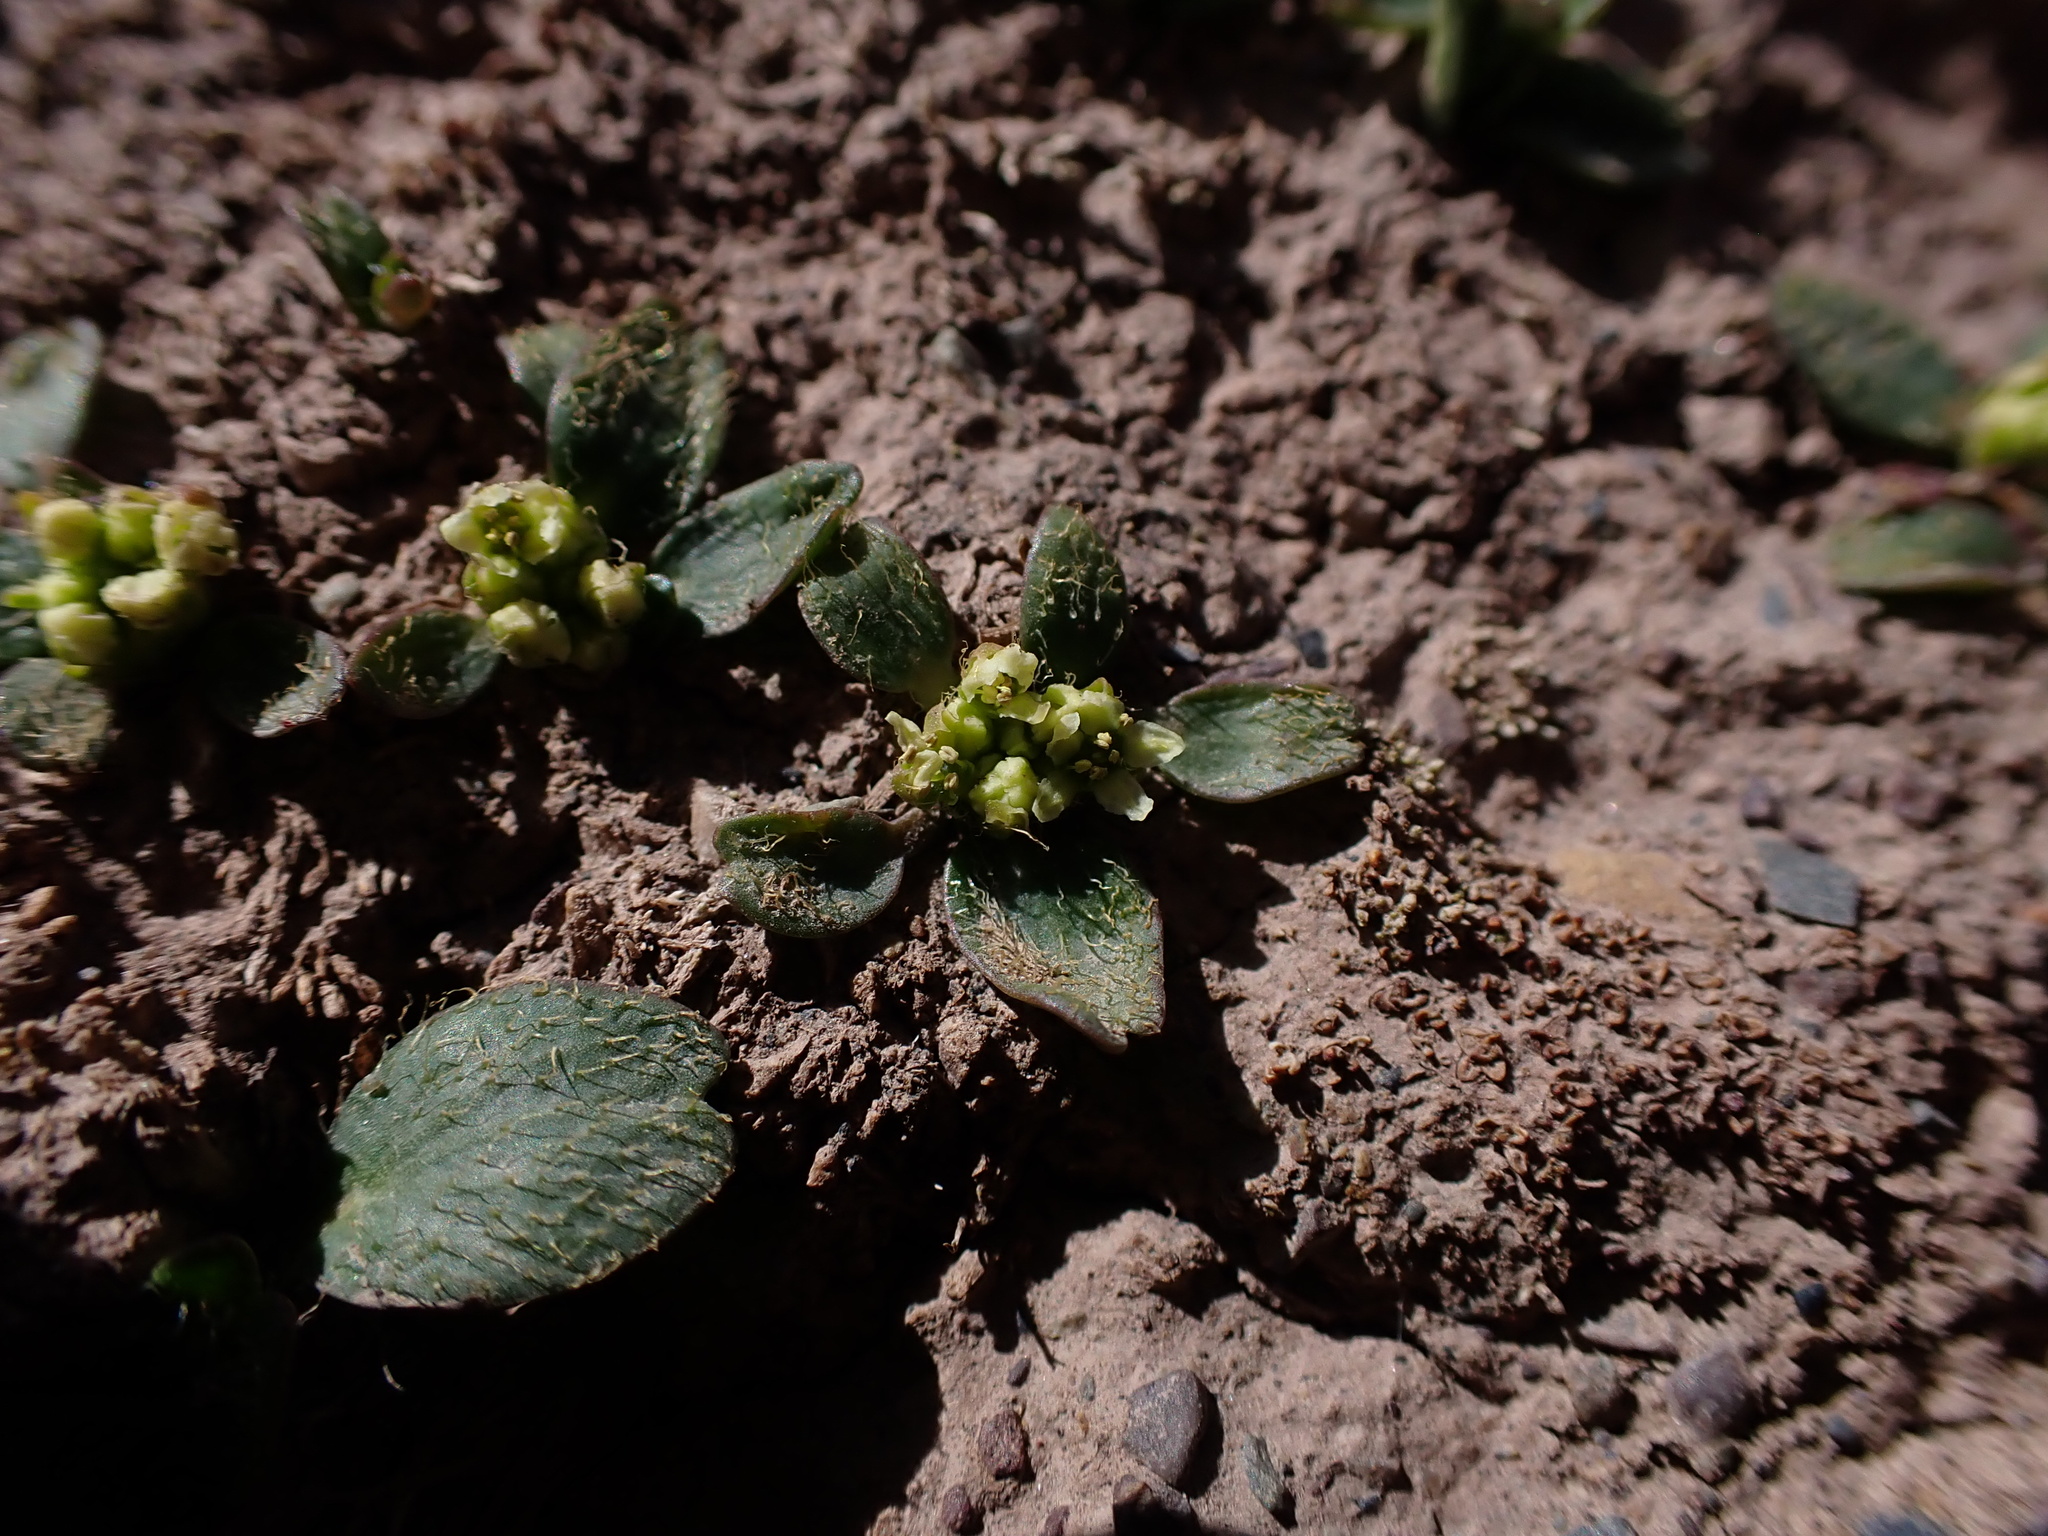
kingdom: Plantae
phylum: Tracheophyta
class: Magnoliopsida
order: Apiales
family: Apiaceae
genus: Azorella
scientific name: Azorella biloba
